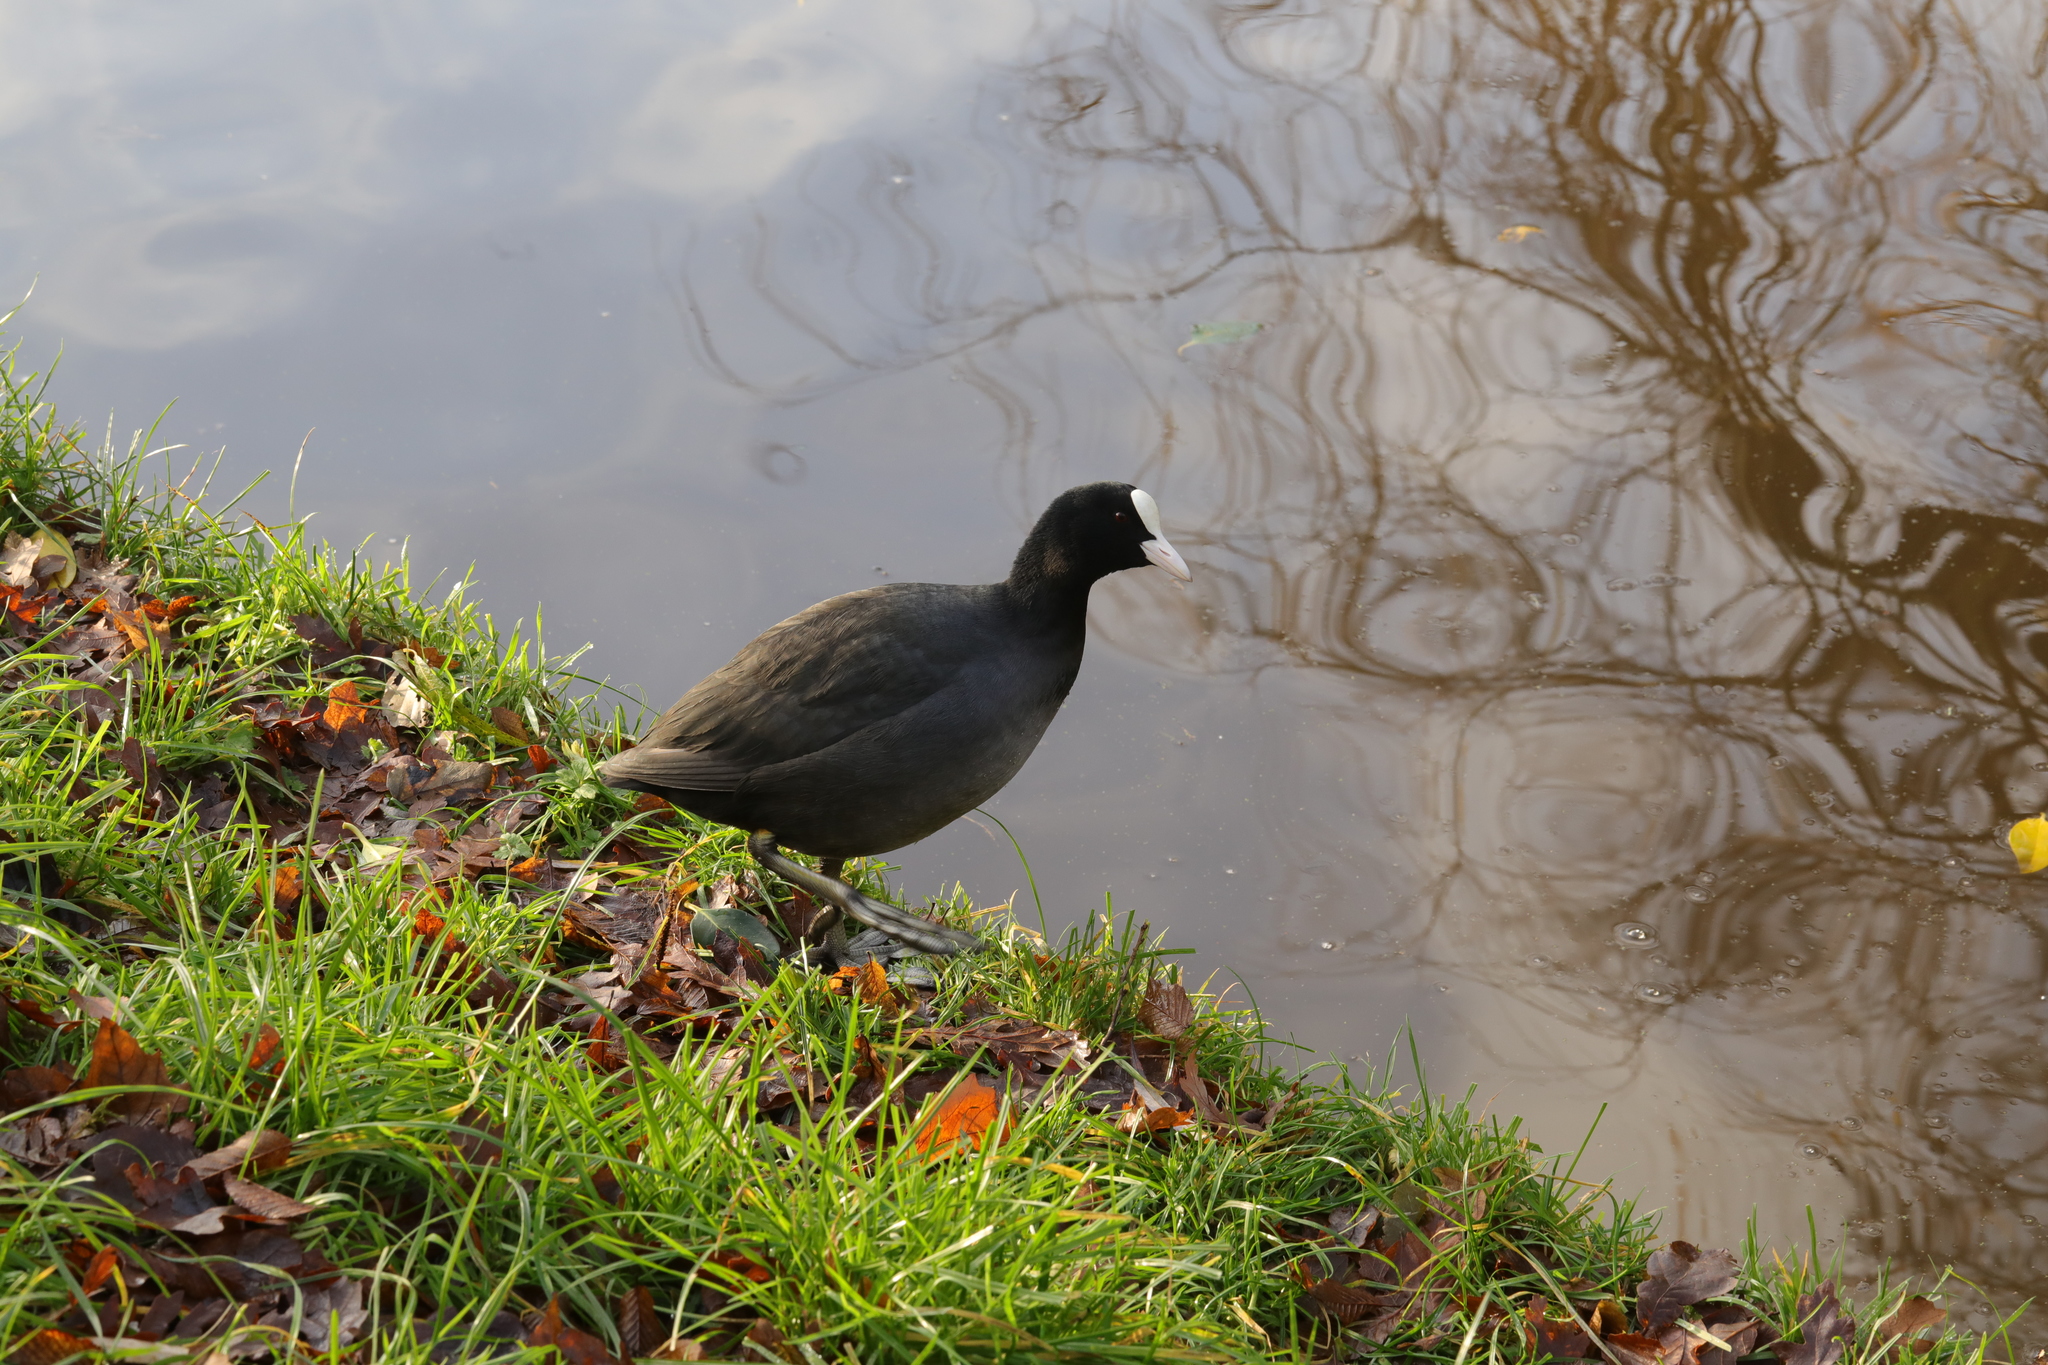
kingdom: Animalia
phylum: Chordata
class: Aves
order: Gruiformes
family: Rallidae
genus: Fulica
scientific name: Fulica atra
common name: Eurasian coot
